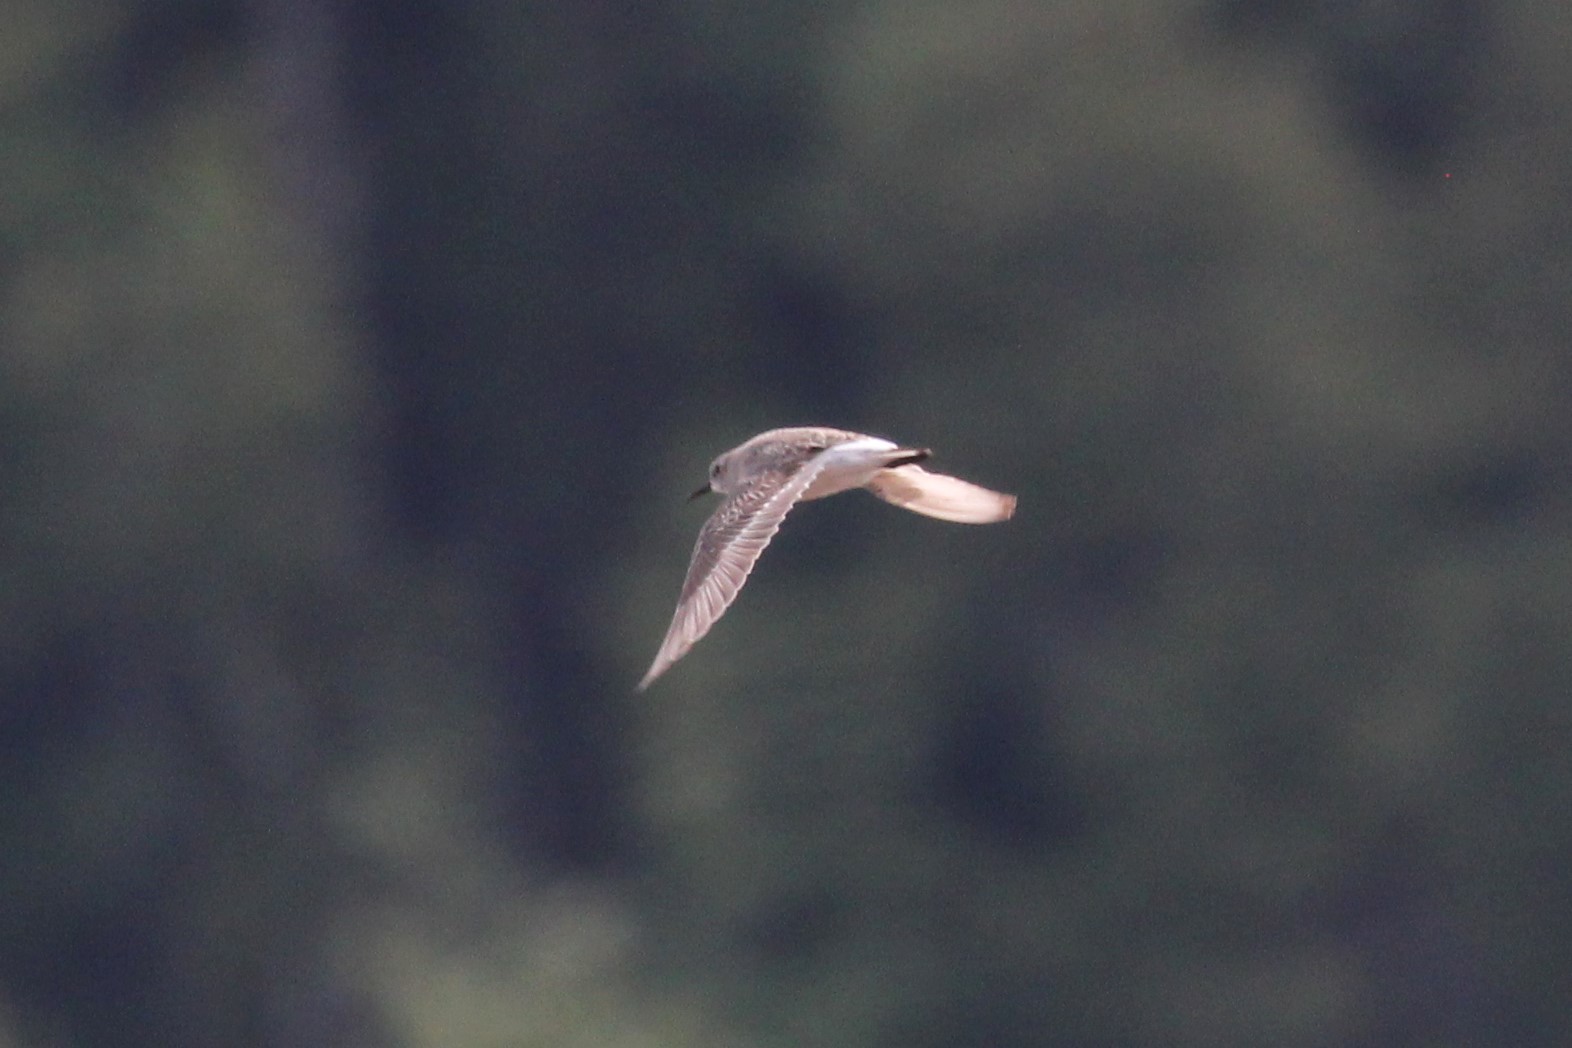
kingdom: Animalia
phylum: Chordata
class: Aves
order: Charadriiformes
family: Scolopacidae
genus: Calidris
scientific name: Calidris fuscicollis
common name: White-rumped sandpiper
